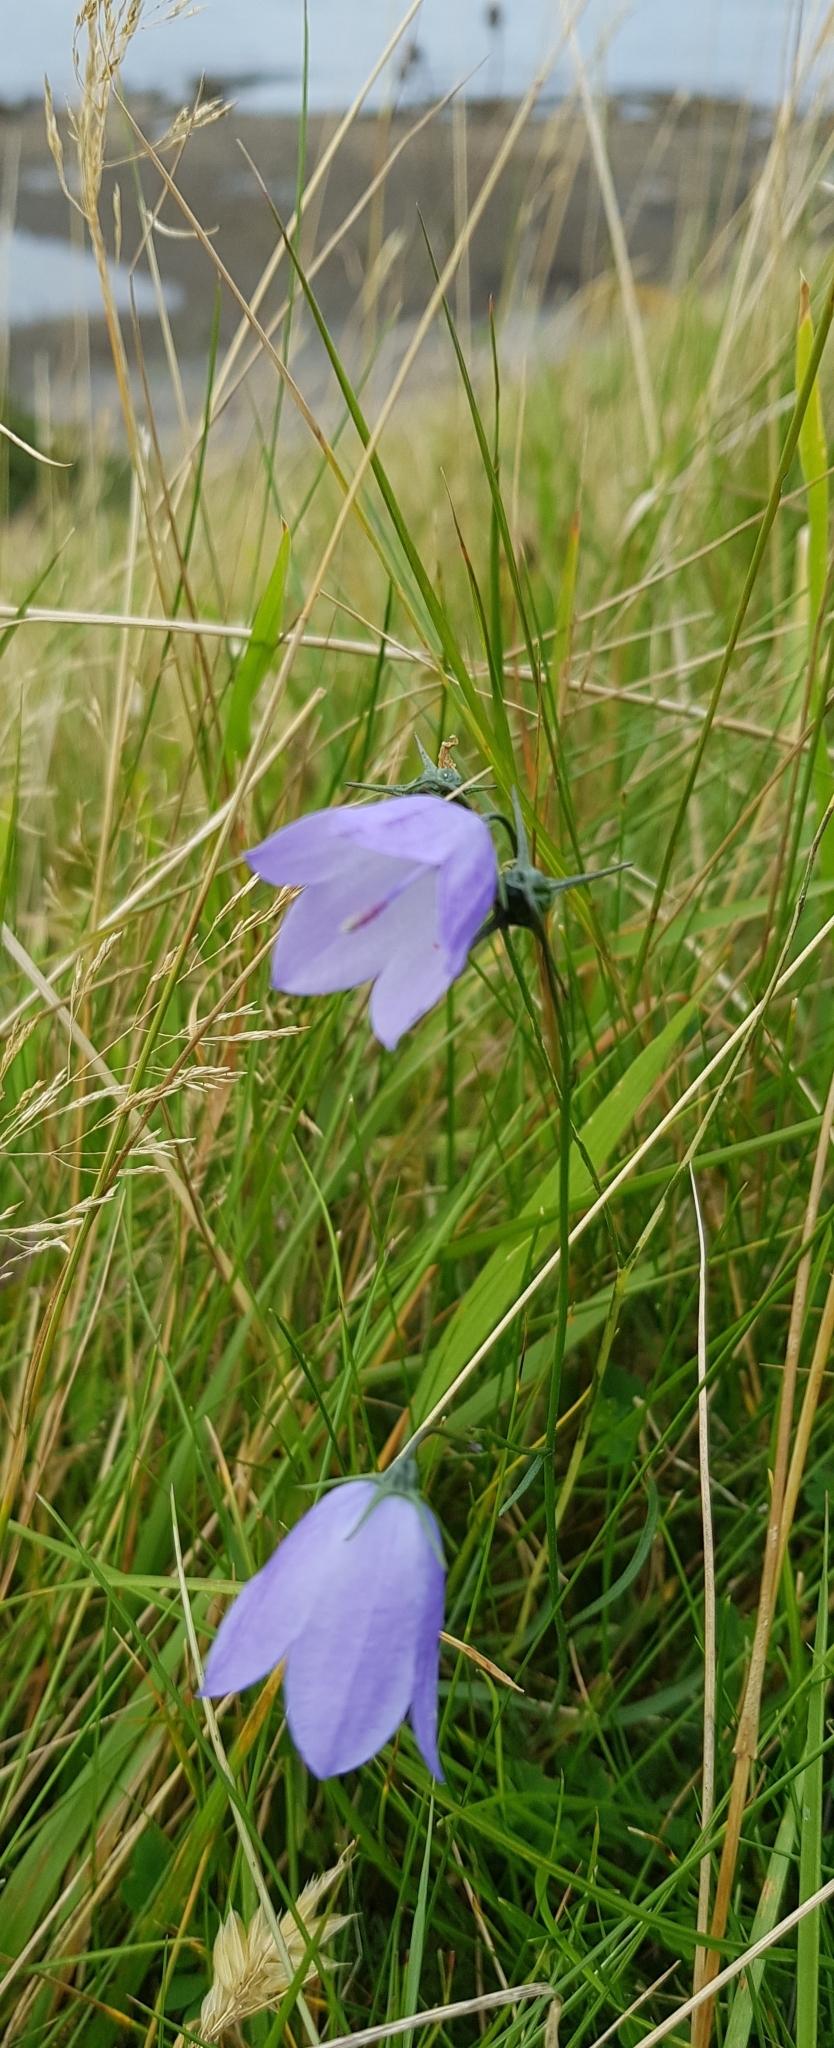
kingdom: Plantae
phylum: Tracheophyta
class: Magnoliopsida
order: Asterales
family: Campanulaceae
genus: Campanula
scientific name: Campanula rotundifolia
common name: Harebell
